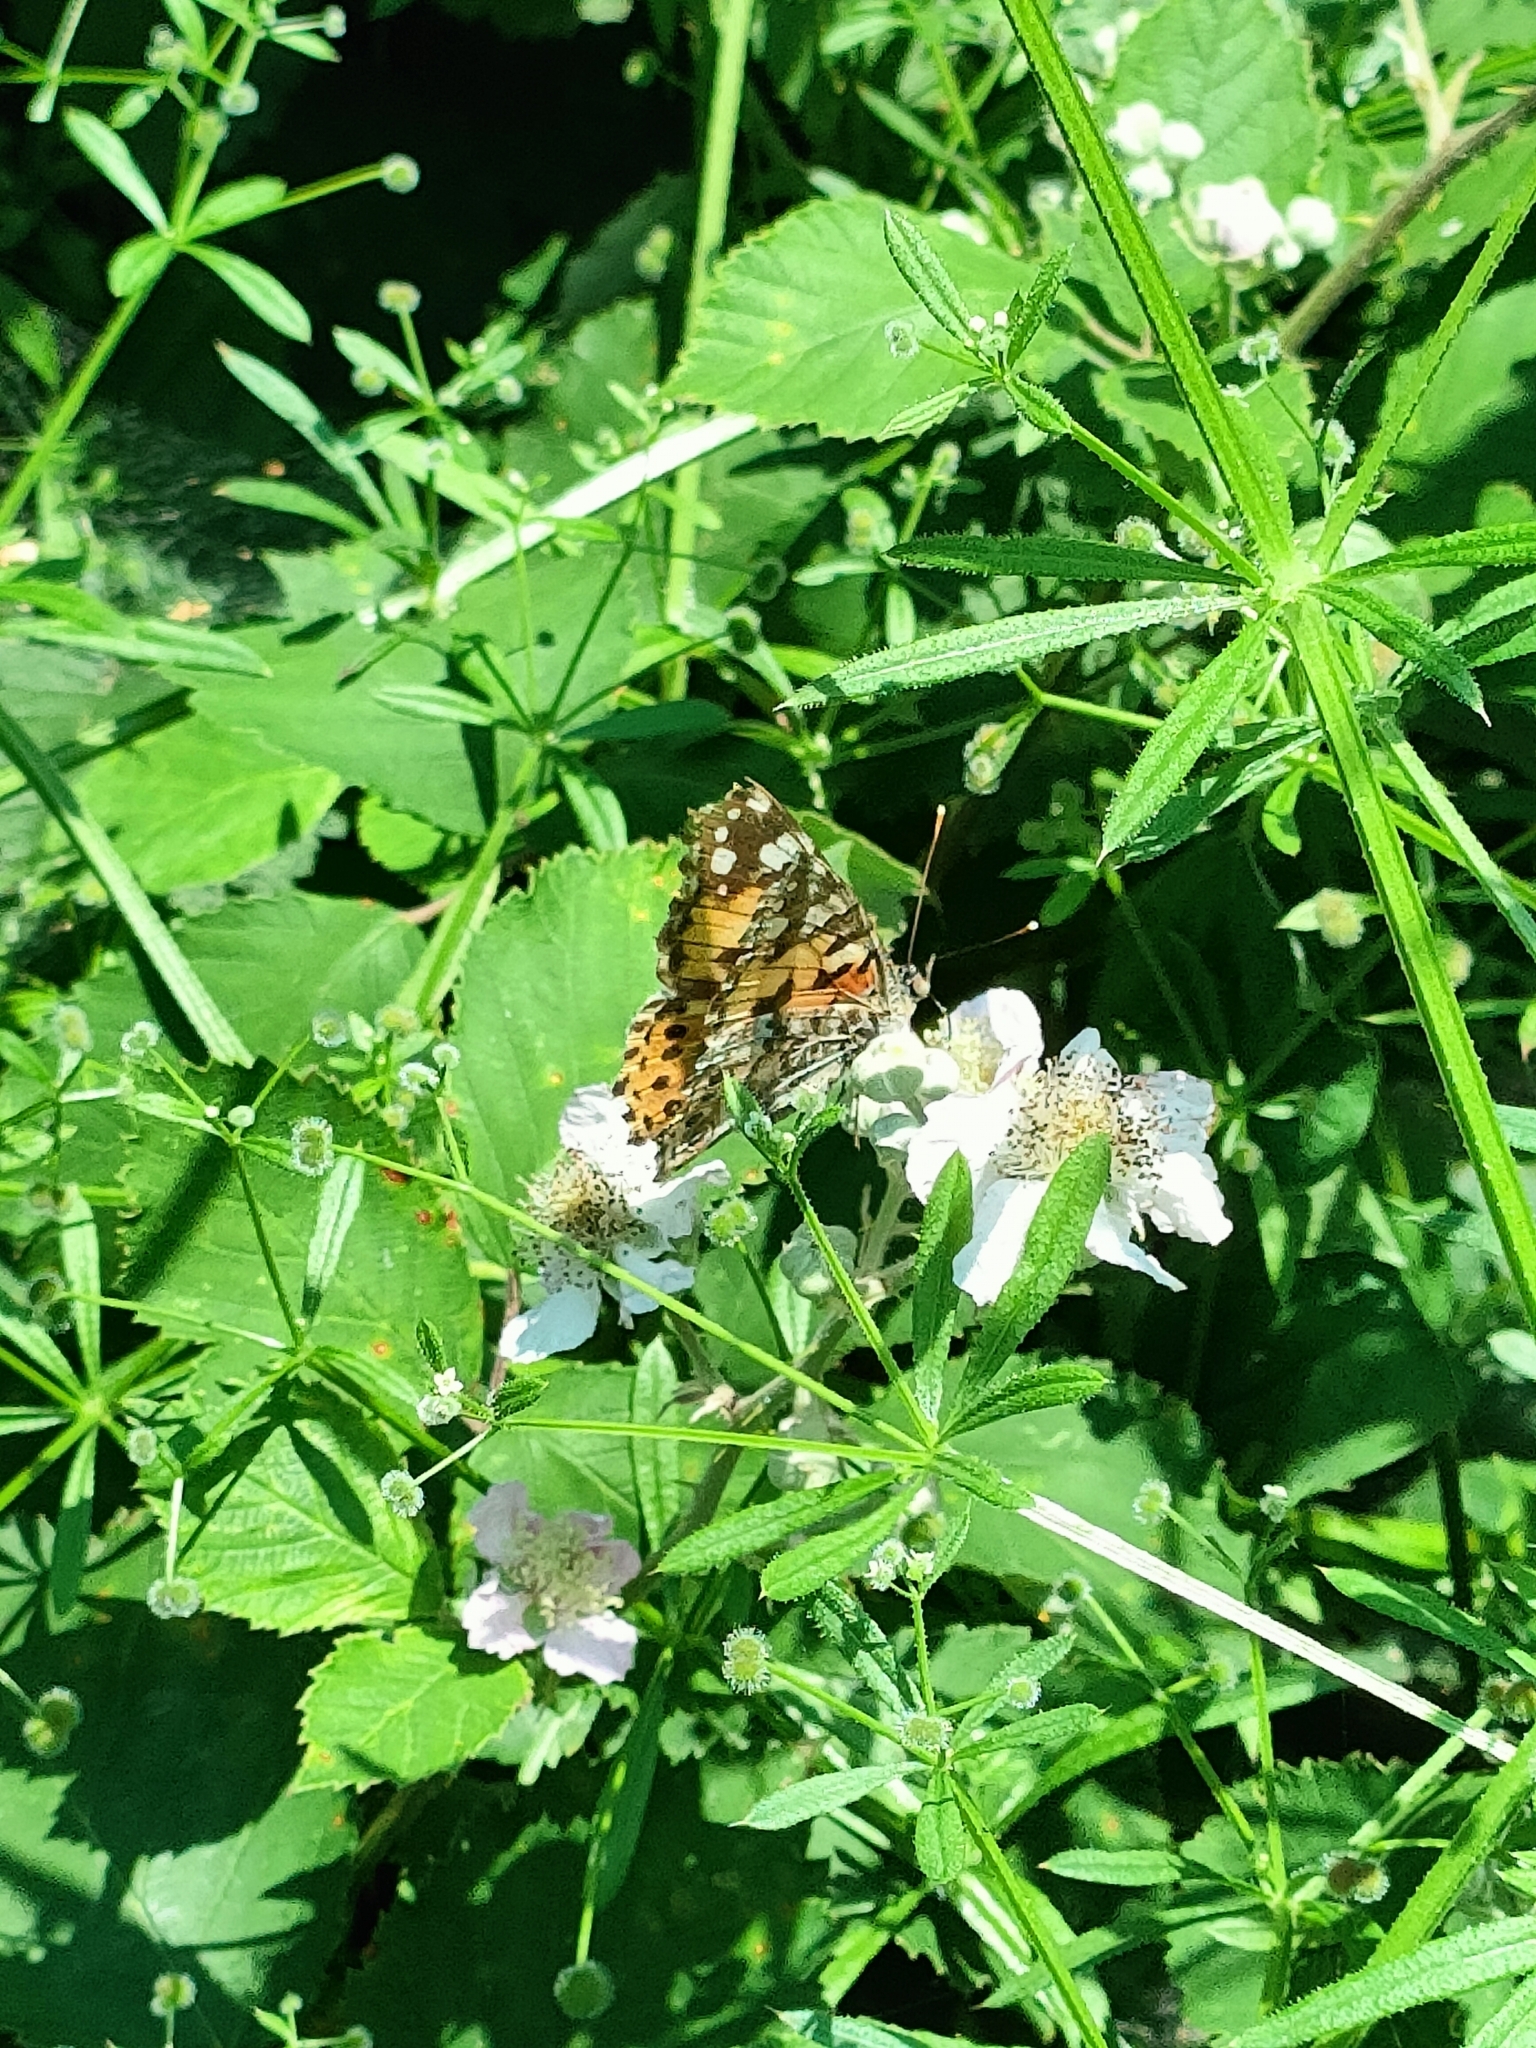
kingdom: Animalia
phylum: Arthropoda
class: Insecta
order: Lepidoptera
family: Nymphalidae
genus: Vanessa
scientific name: Vanessa cardui
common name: Painted lady
